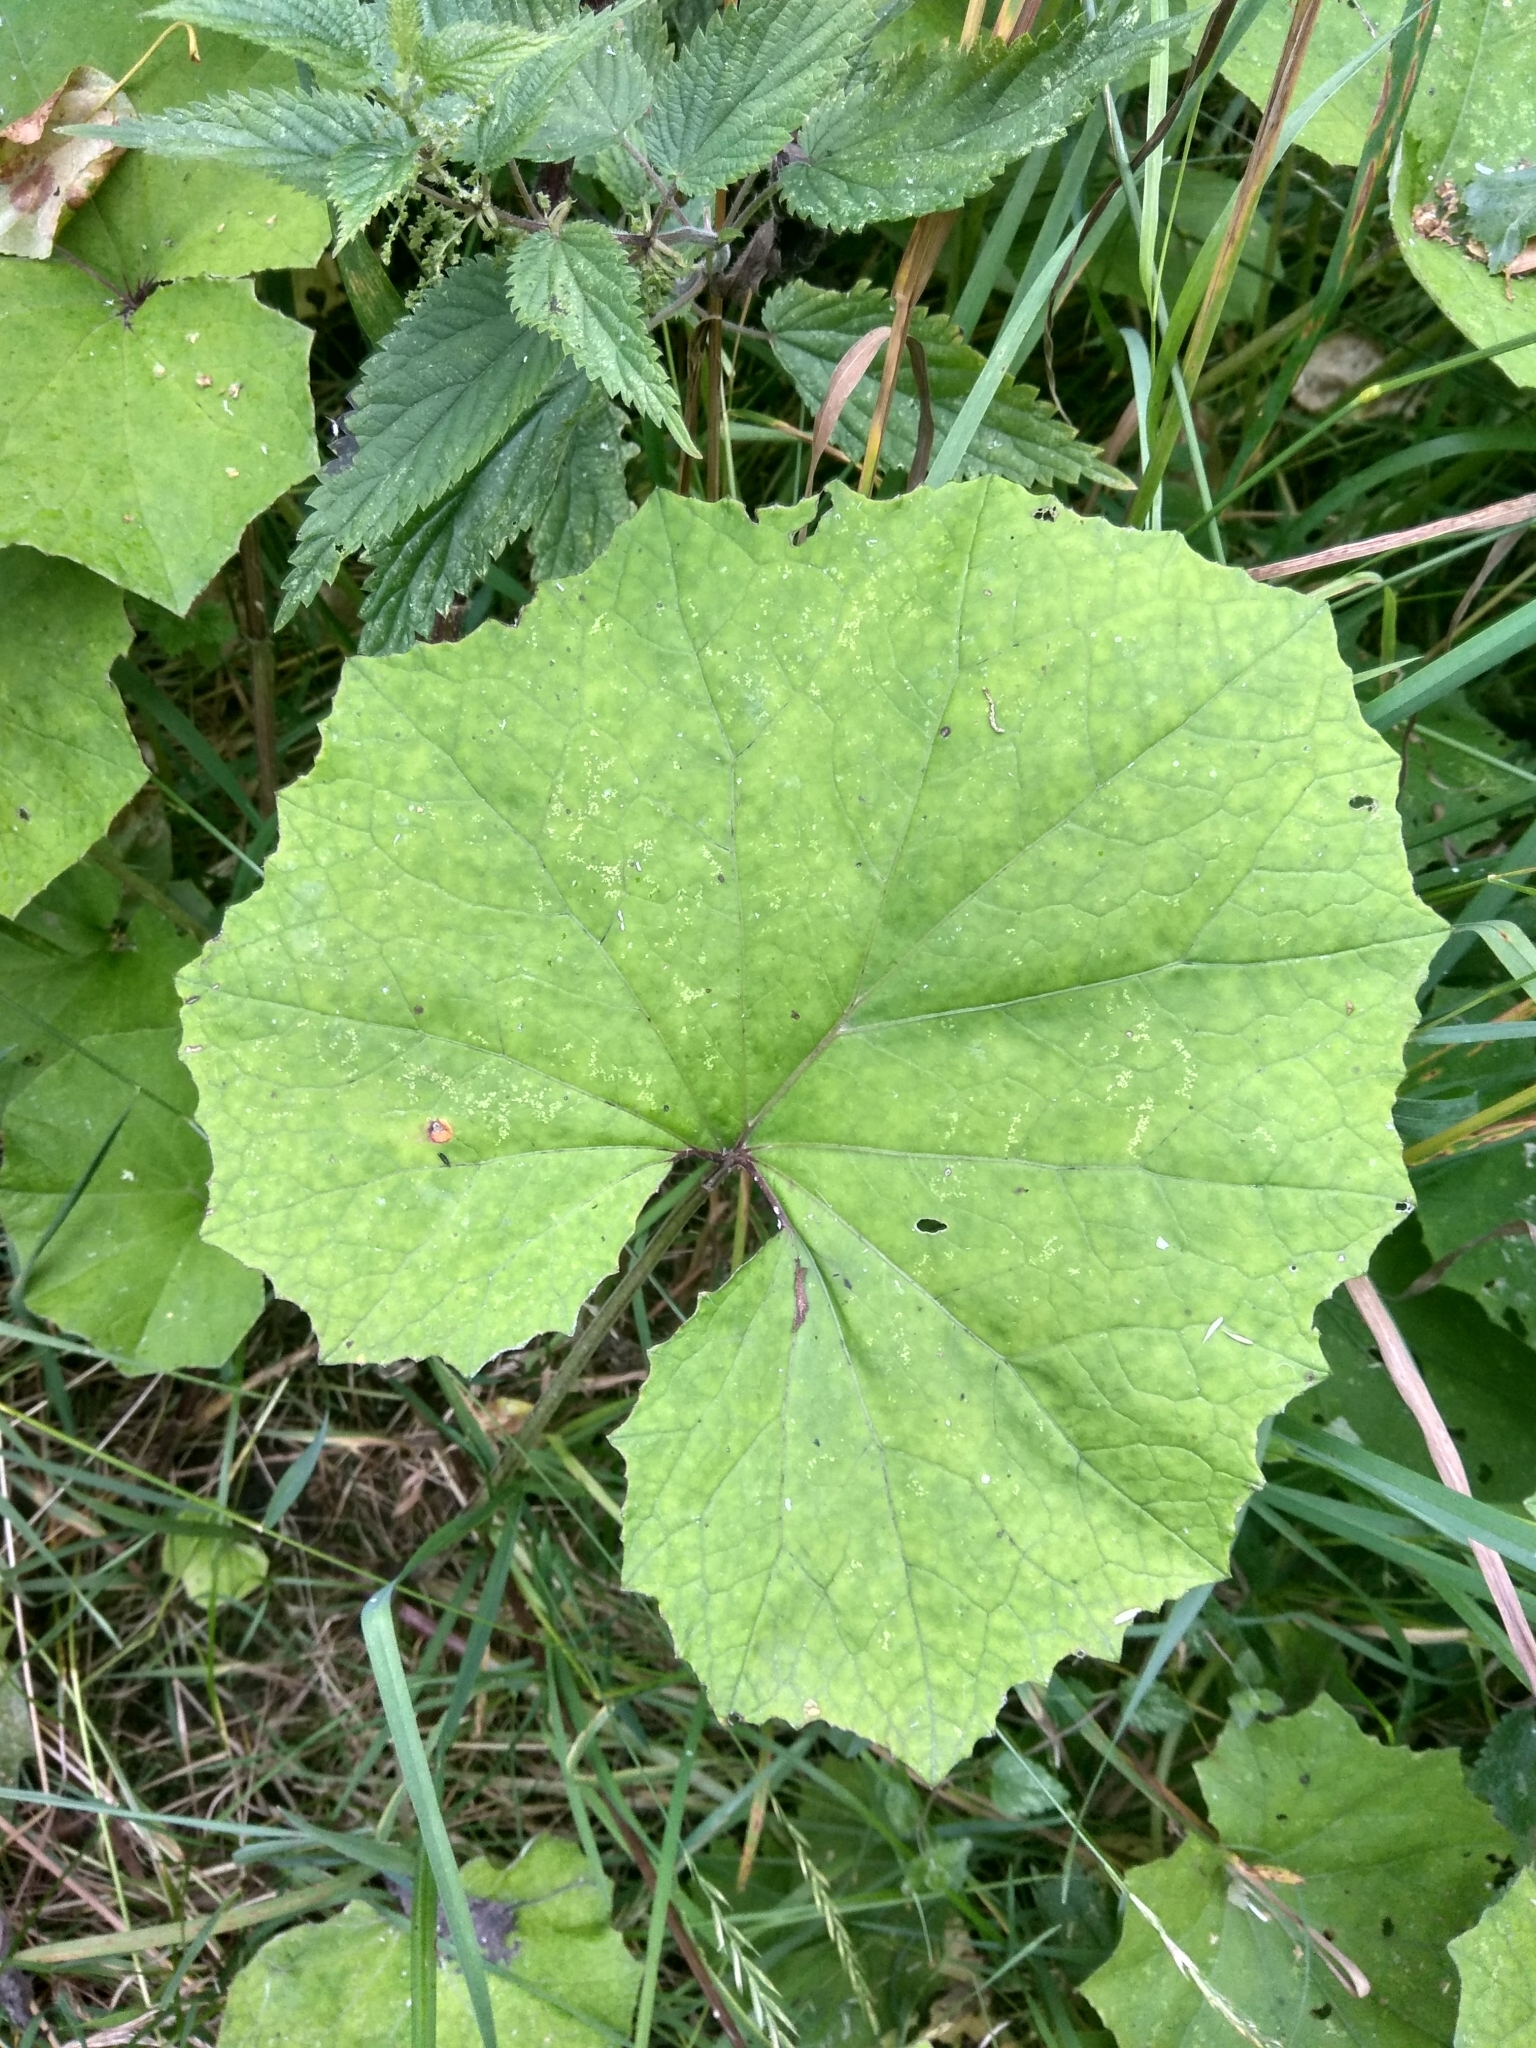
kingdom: Plantae
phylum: Tracheophyta
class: Magnoliopsida
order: Asterales
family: Asteraceae
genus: Tussilago
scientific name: Tussilago farfara
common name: Coltsfoot
